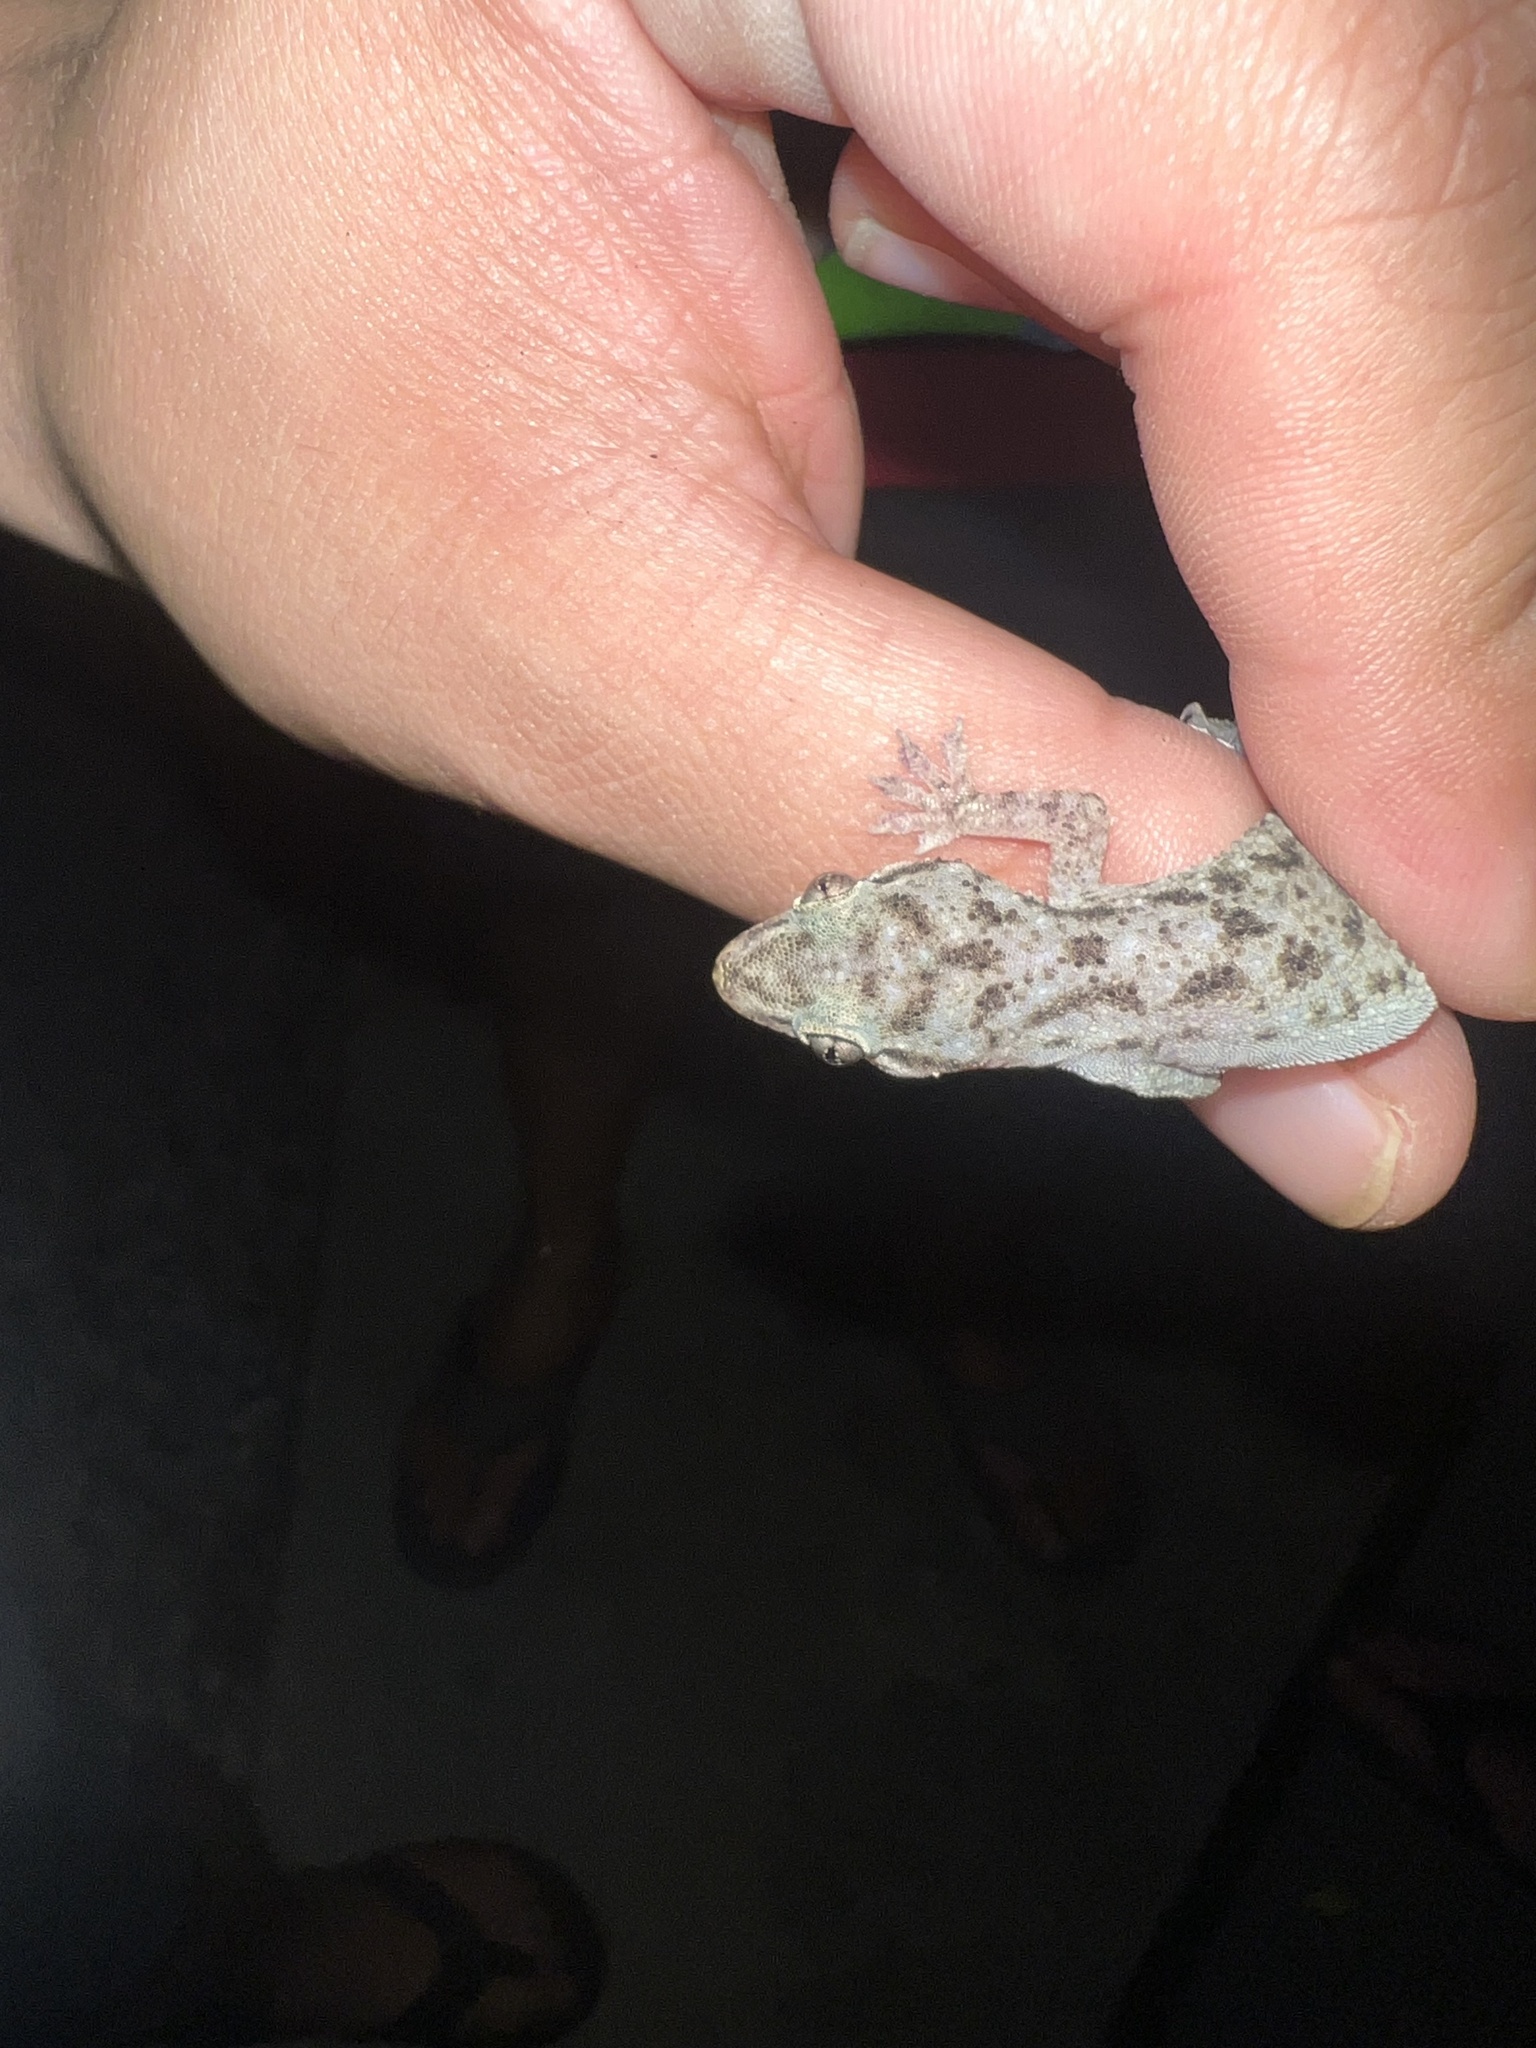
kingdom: Animalia
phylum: Chordata
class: Squamata
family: Gekkonidae
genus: Hemidactylus
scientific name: Hemidactylus parvimaculatus
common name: Spotted house gecko
